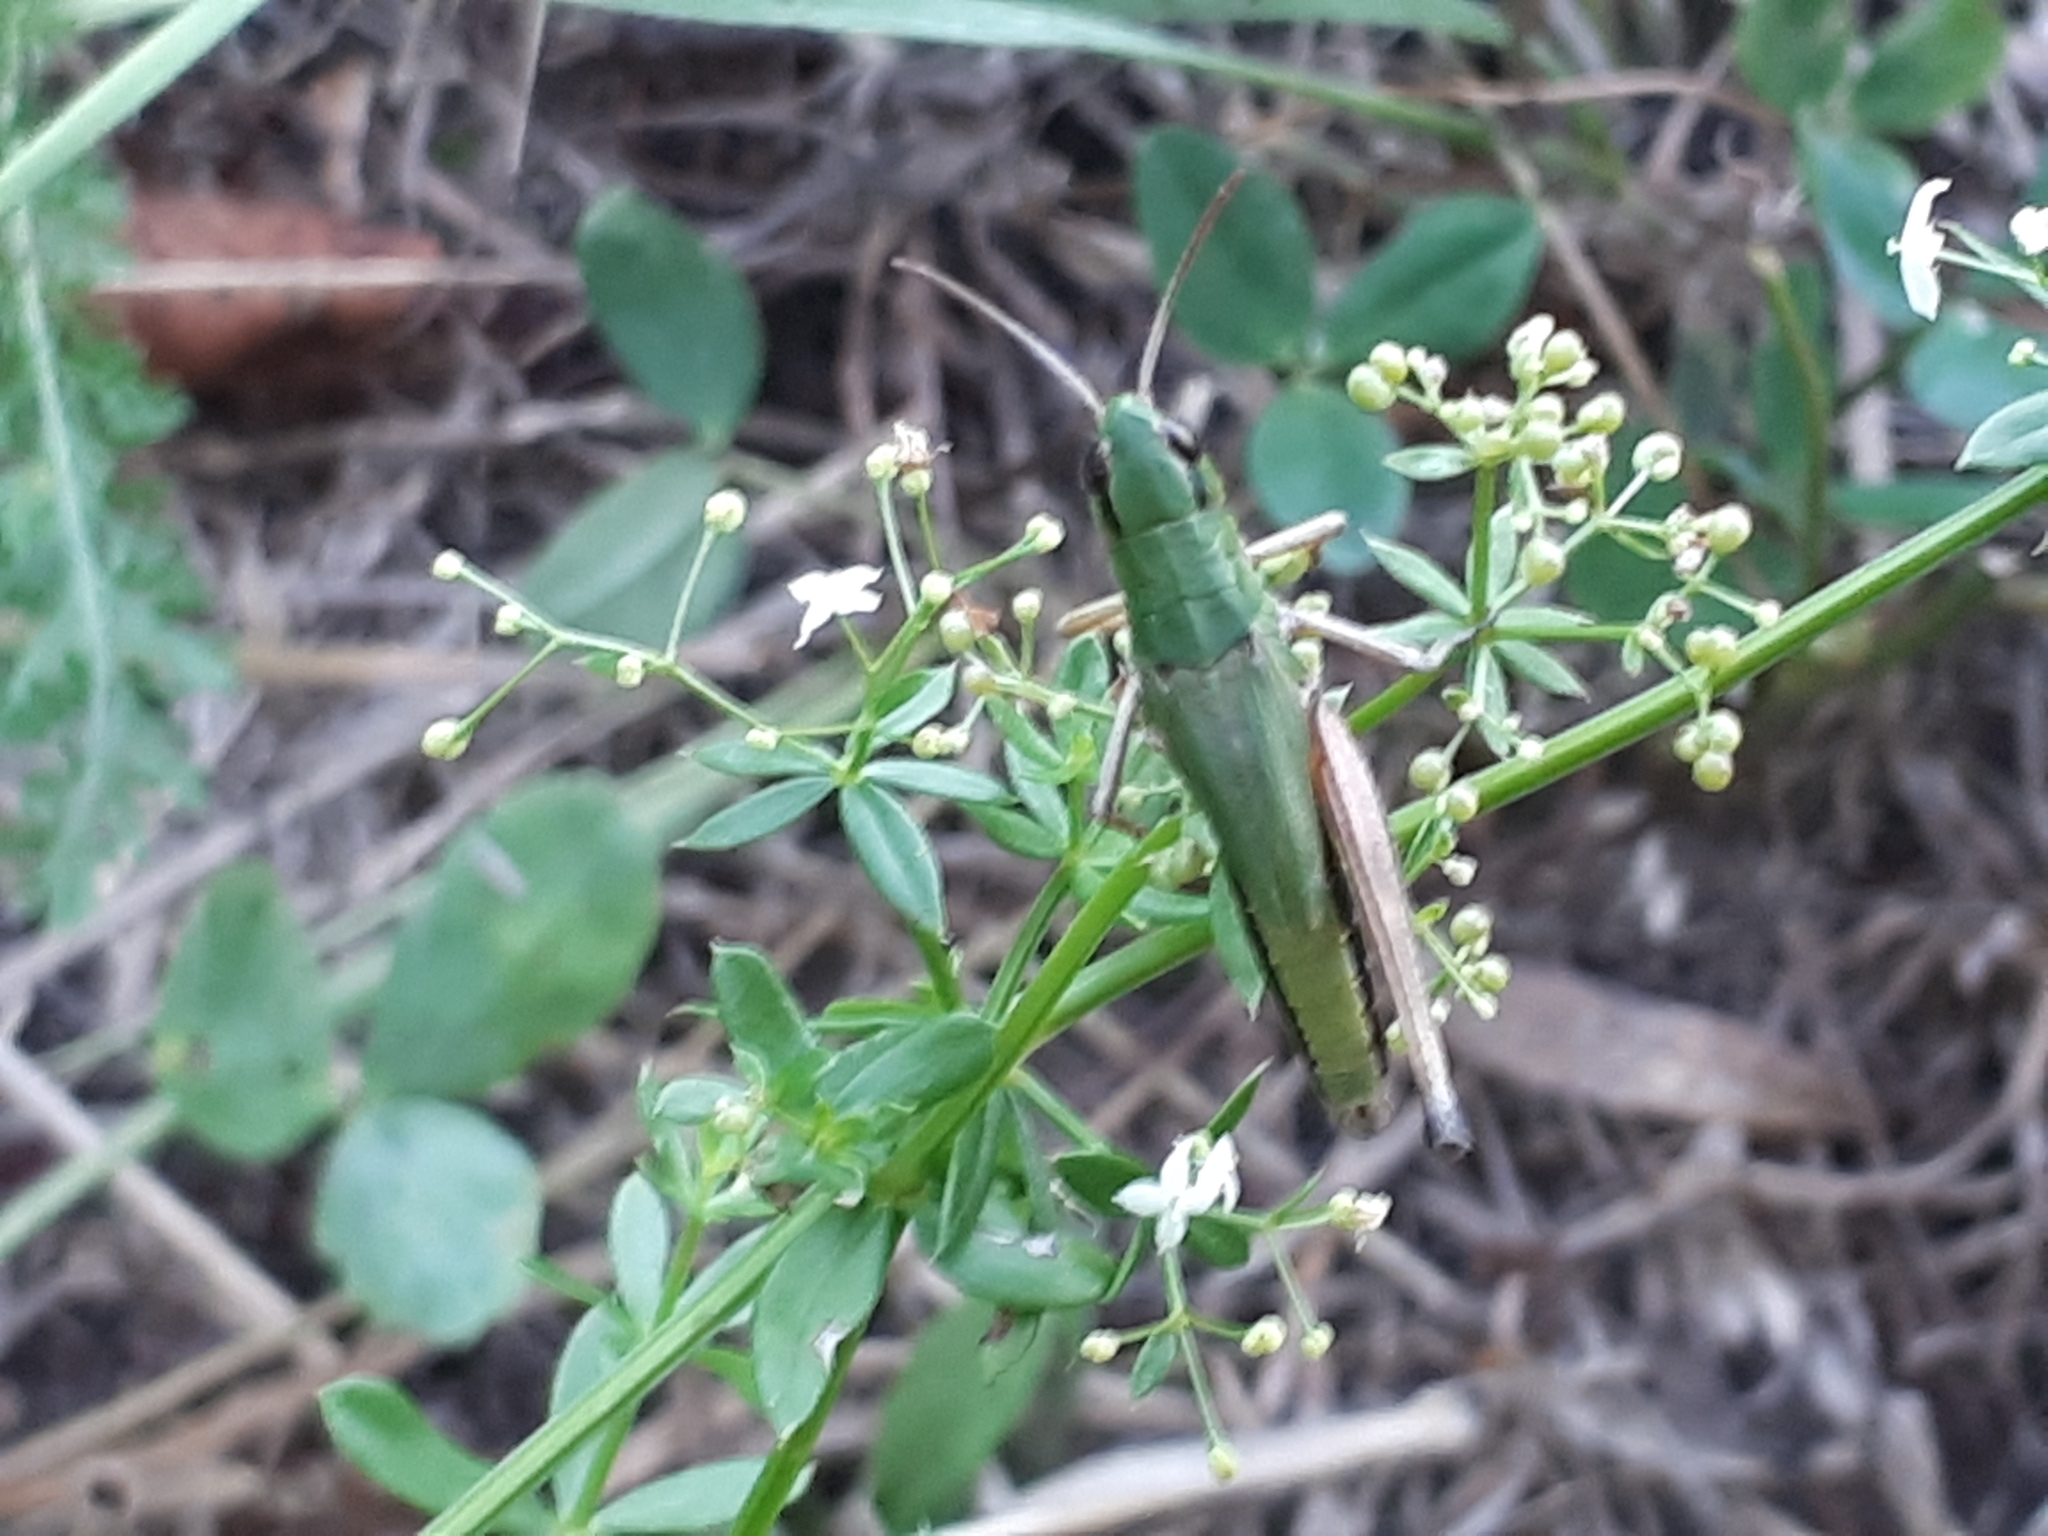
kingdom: Animalia
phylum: Arthropoda
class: Insecta
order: Orthoptera
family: Acrididae
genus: Pseudochorthippus
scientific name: Pseudochorthippus parallelus
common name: Meadow grasshopper
